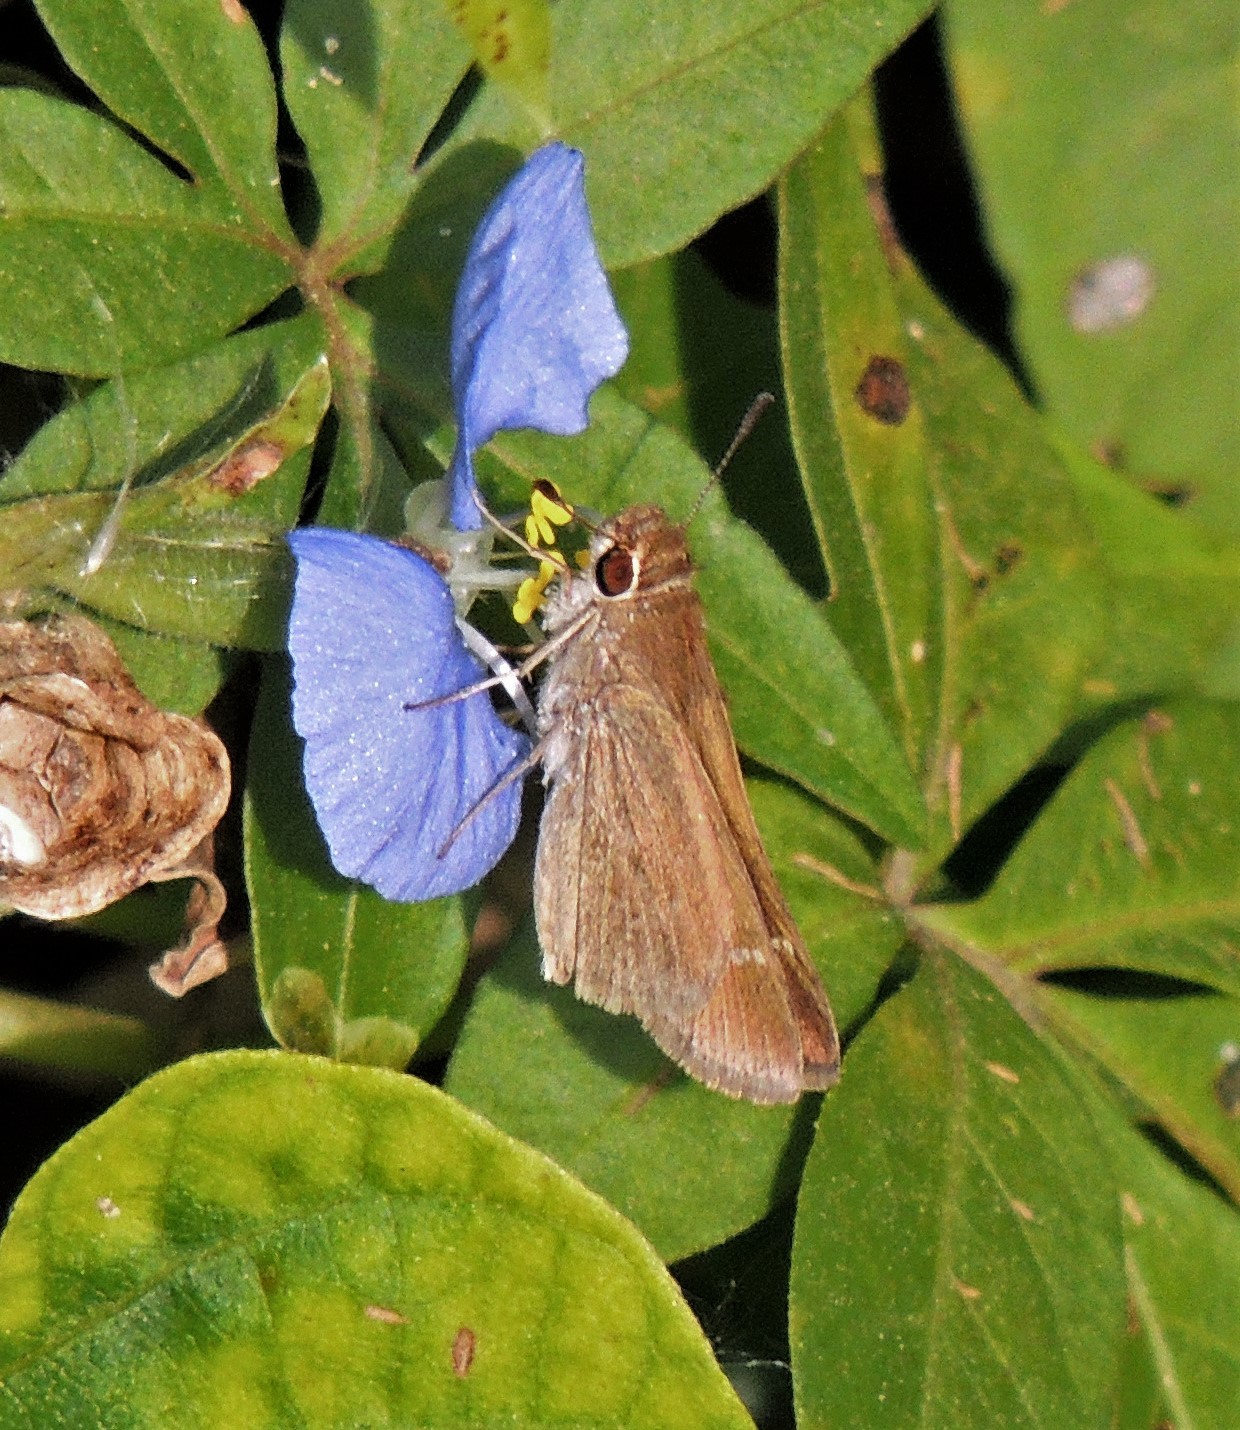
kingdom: Animalia
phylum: Arthropoda
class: Insecta
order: Lepidoptera
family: Hesperiidae
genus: Lerodea
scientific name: Lerodea eufala
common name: Eufala skipper
